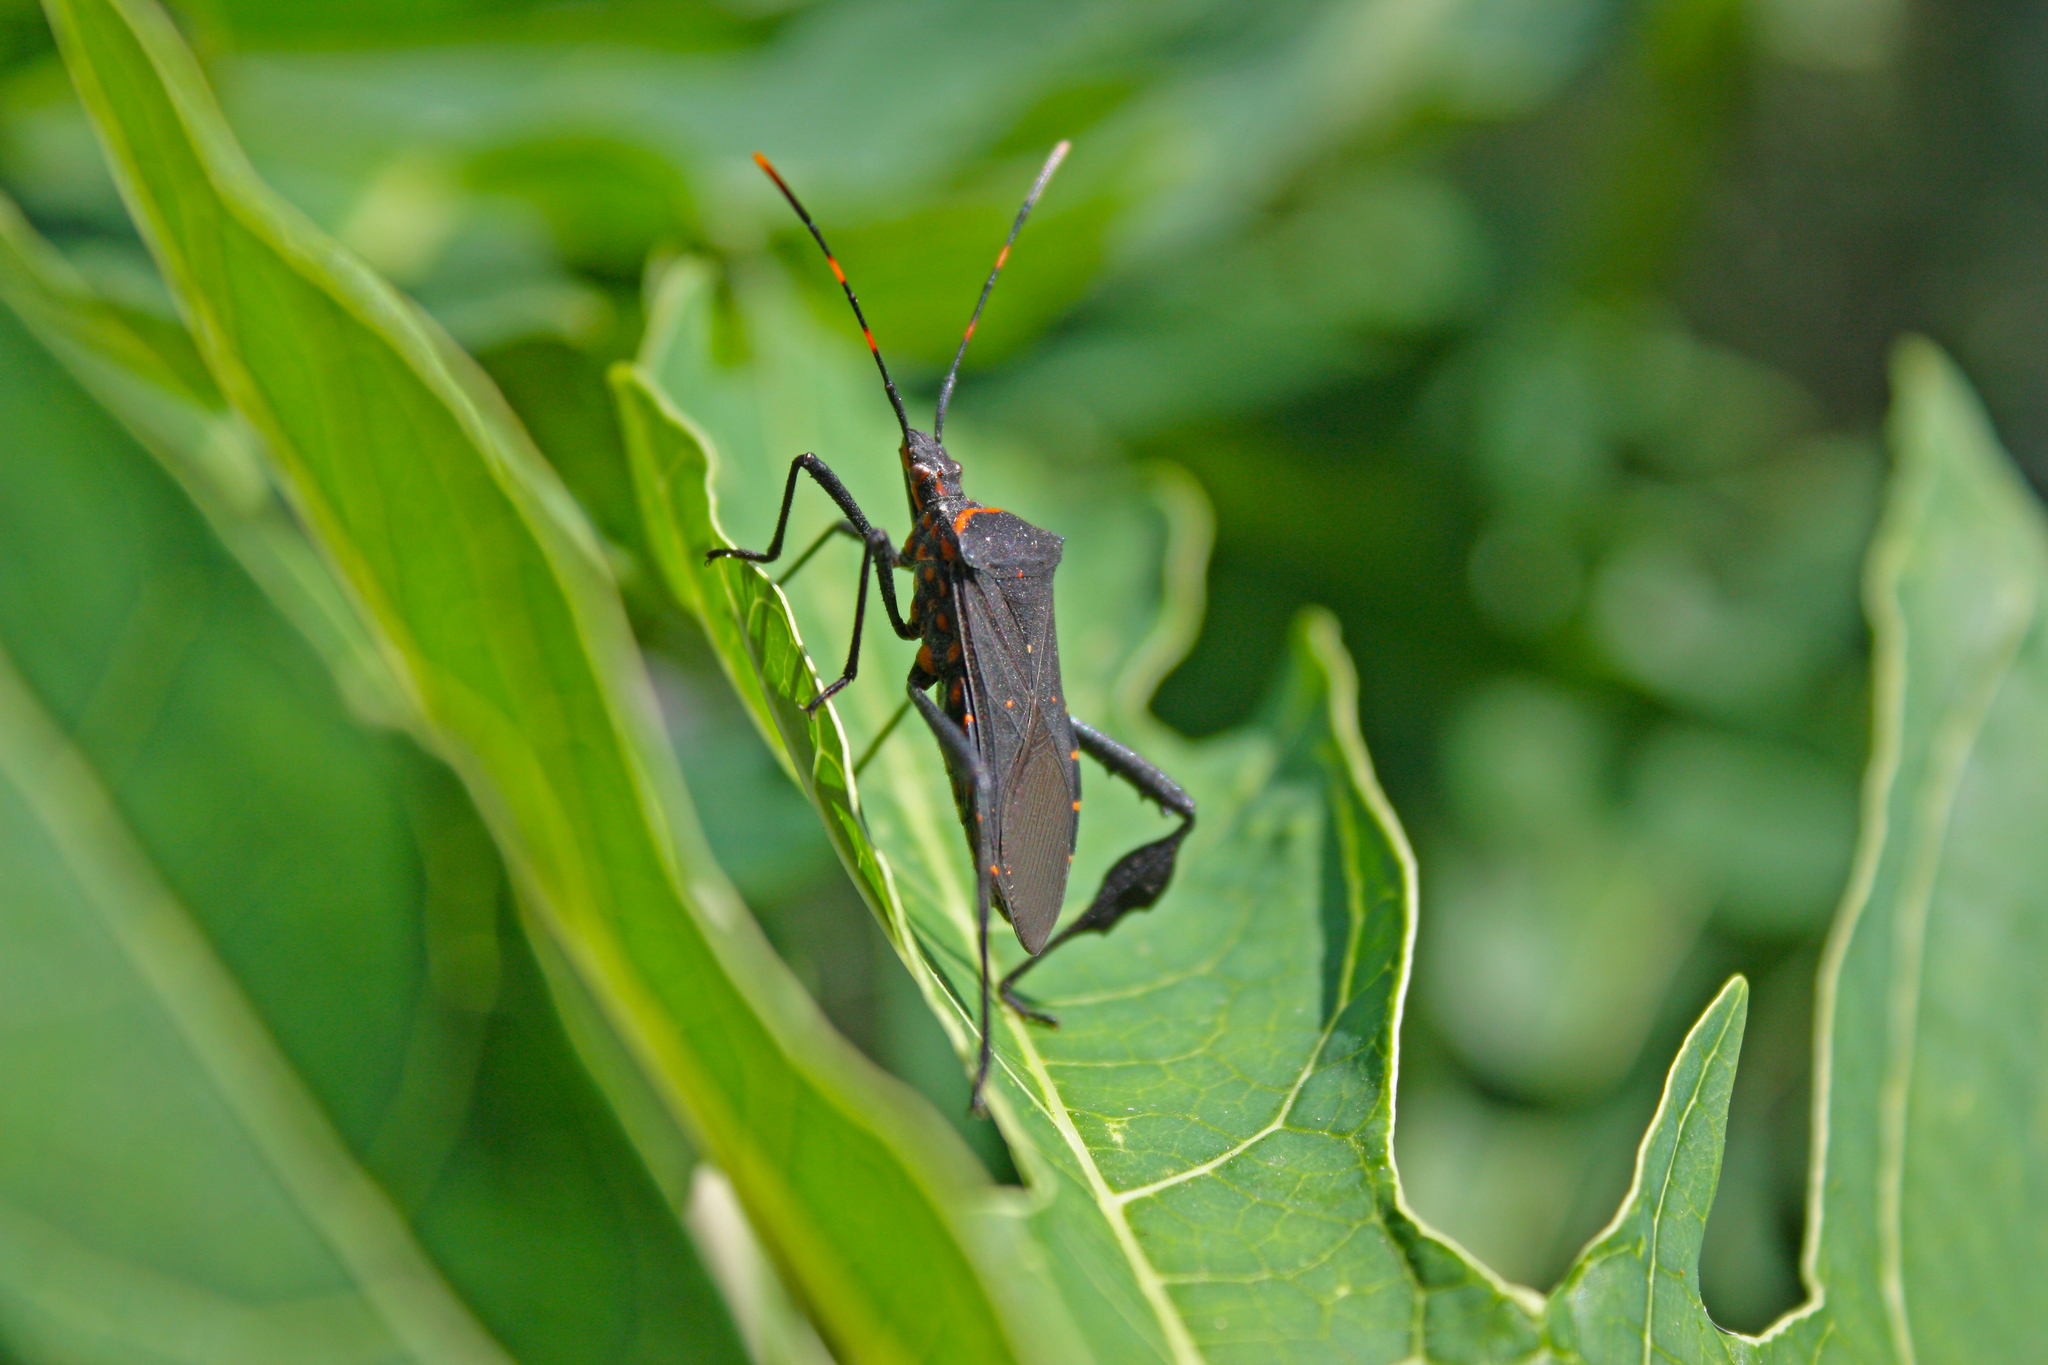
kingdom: Animalia
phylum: Arthropoda
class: Insecta
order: Hemiptera
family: Alydidae
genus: Riptortus
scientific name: Riptortus serripes
